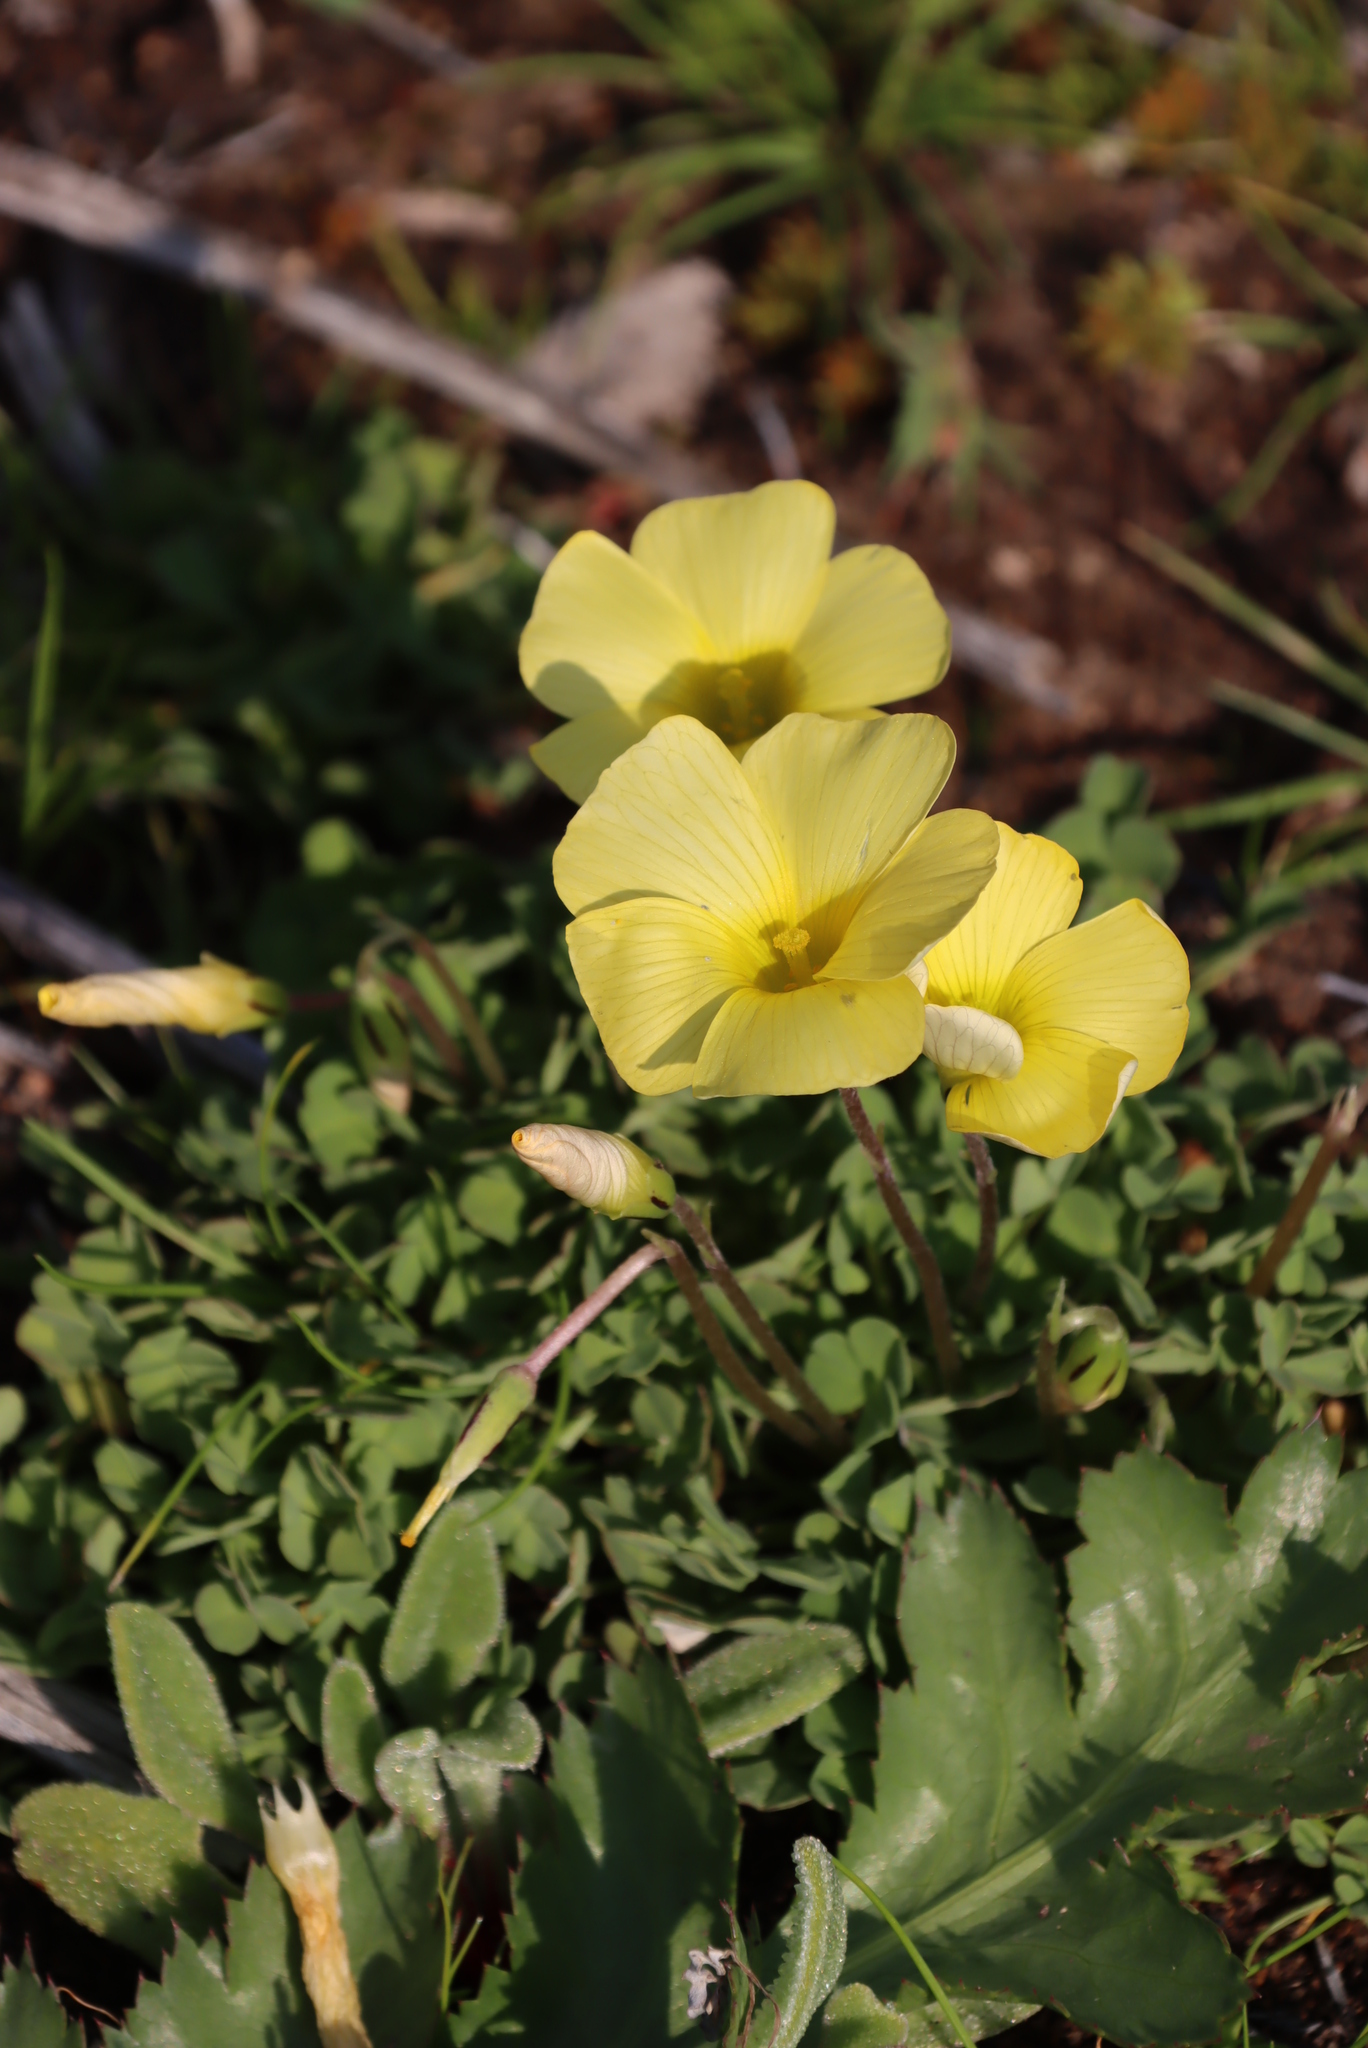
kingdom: Plantae
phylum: Tracheophyta
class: Magnoliopsida
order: Oxalidales
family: Oxalidaceae
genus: Oxalis
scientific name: Oxalis obtusa
